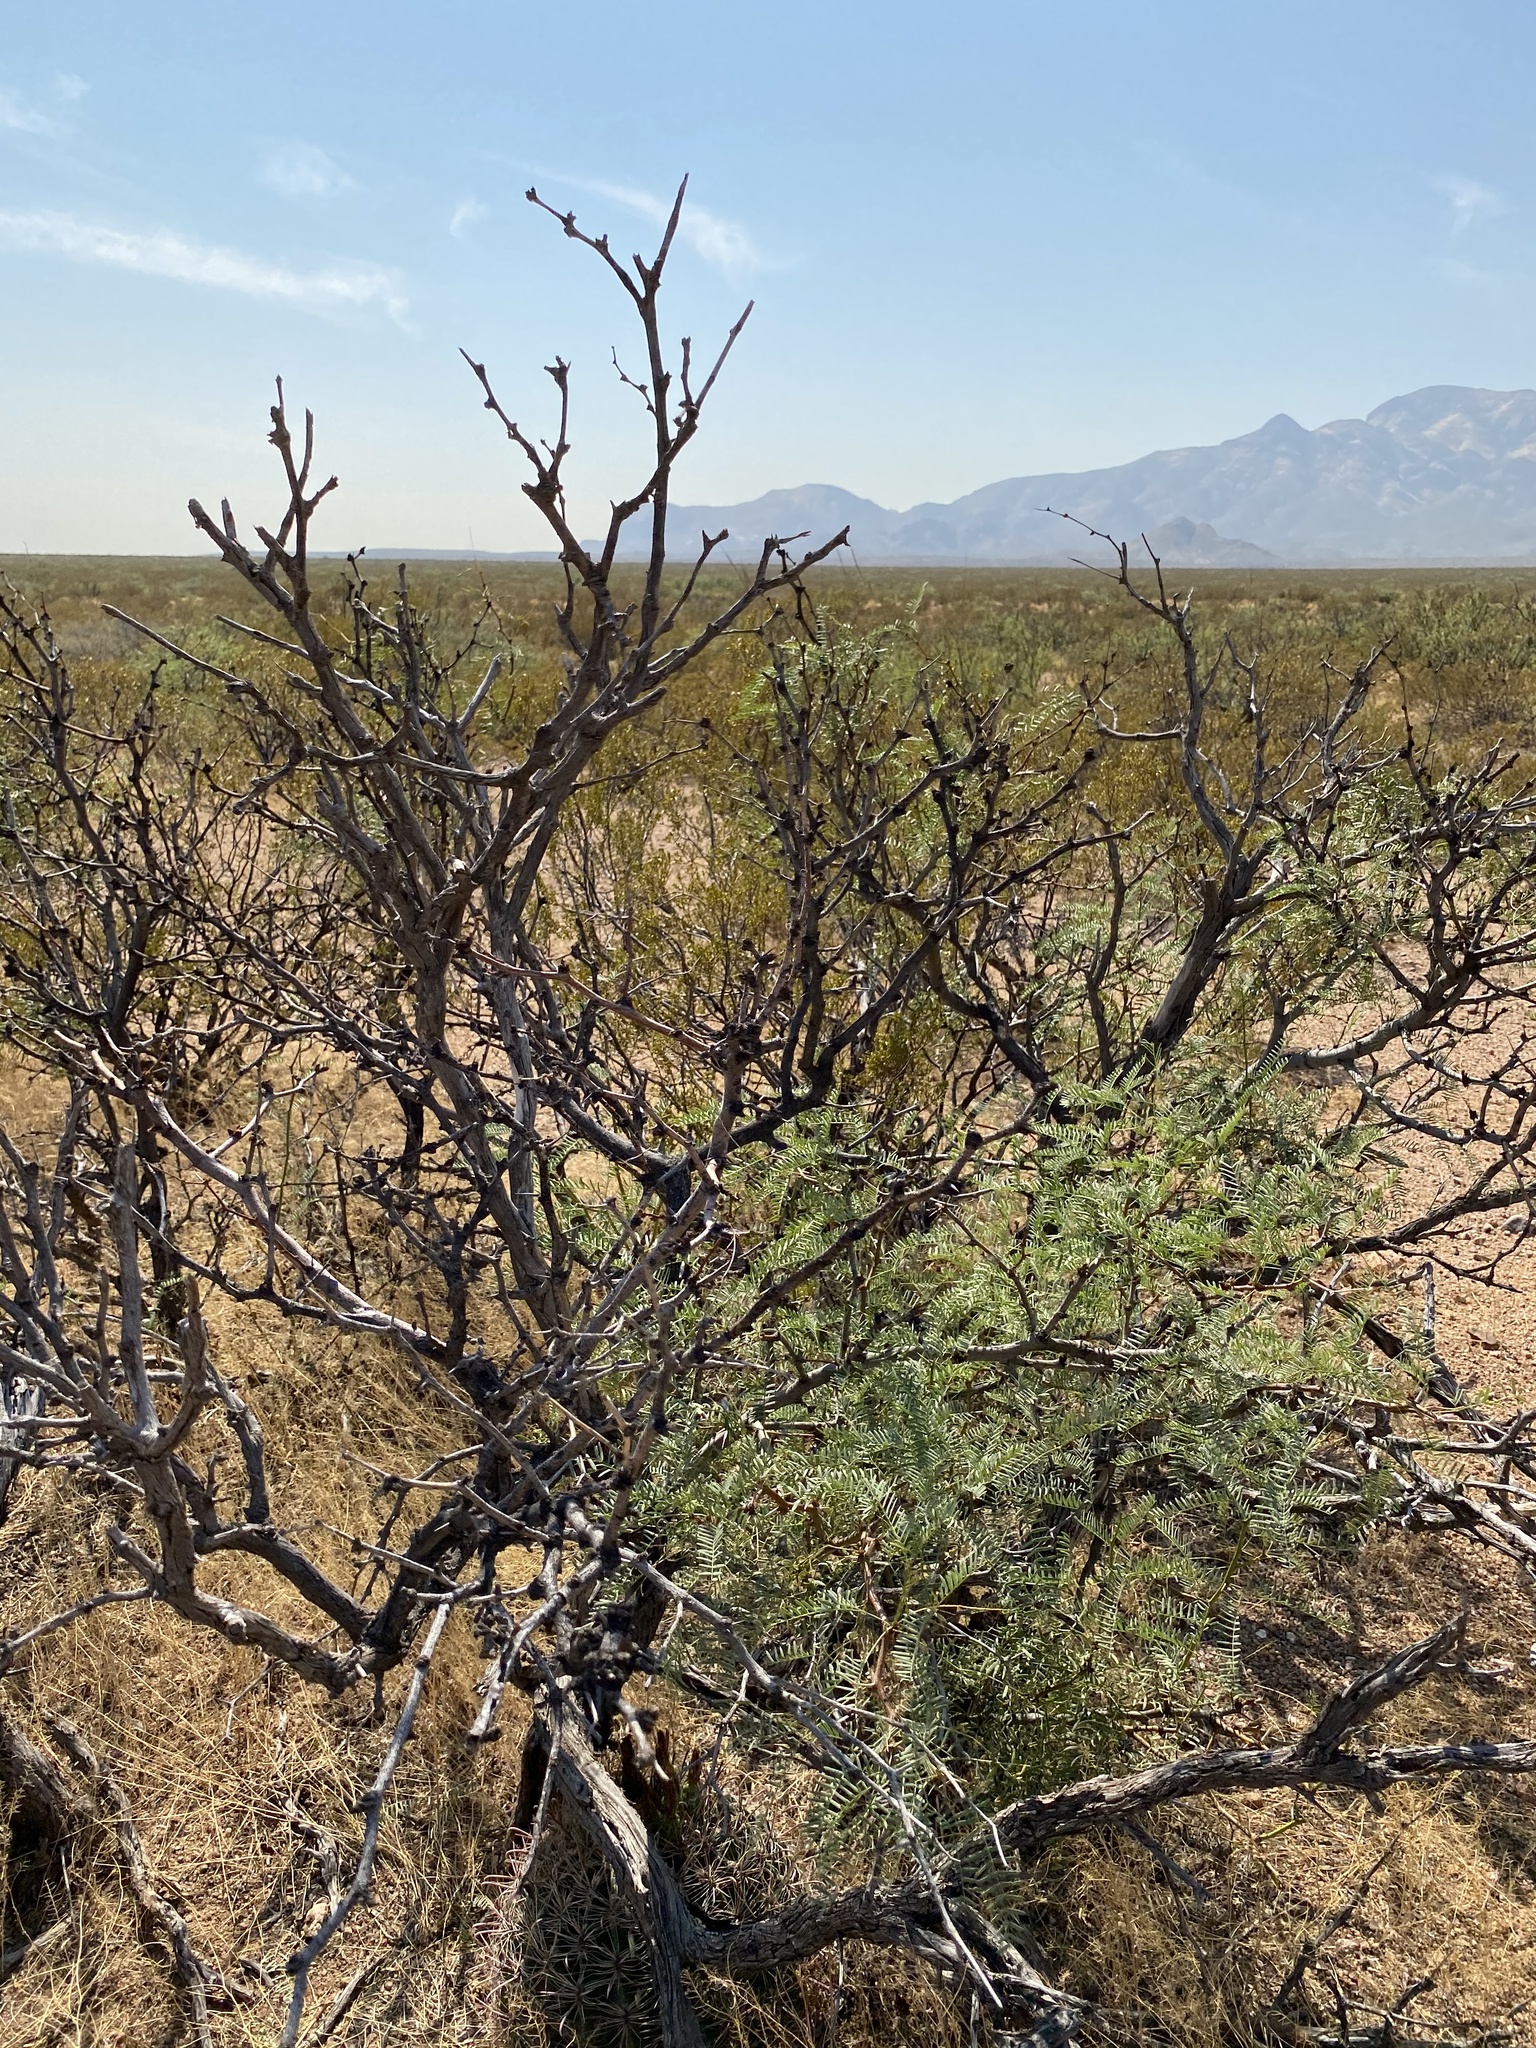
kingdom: Plantae
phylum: Tracheophyta
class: Magnoliopsida
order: Fabales
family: Fabaceae
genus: Prosopis
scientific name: Prosopis glandulosa
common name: Honey mesquite
